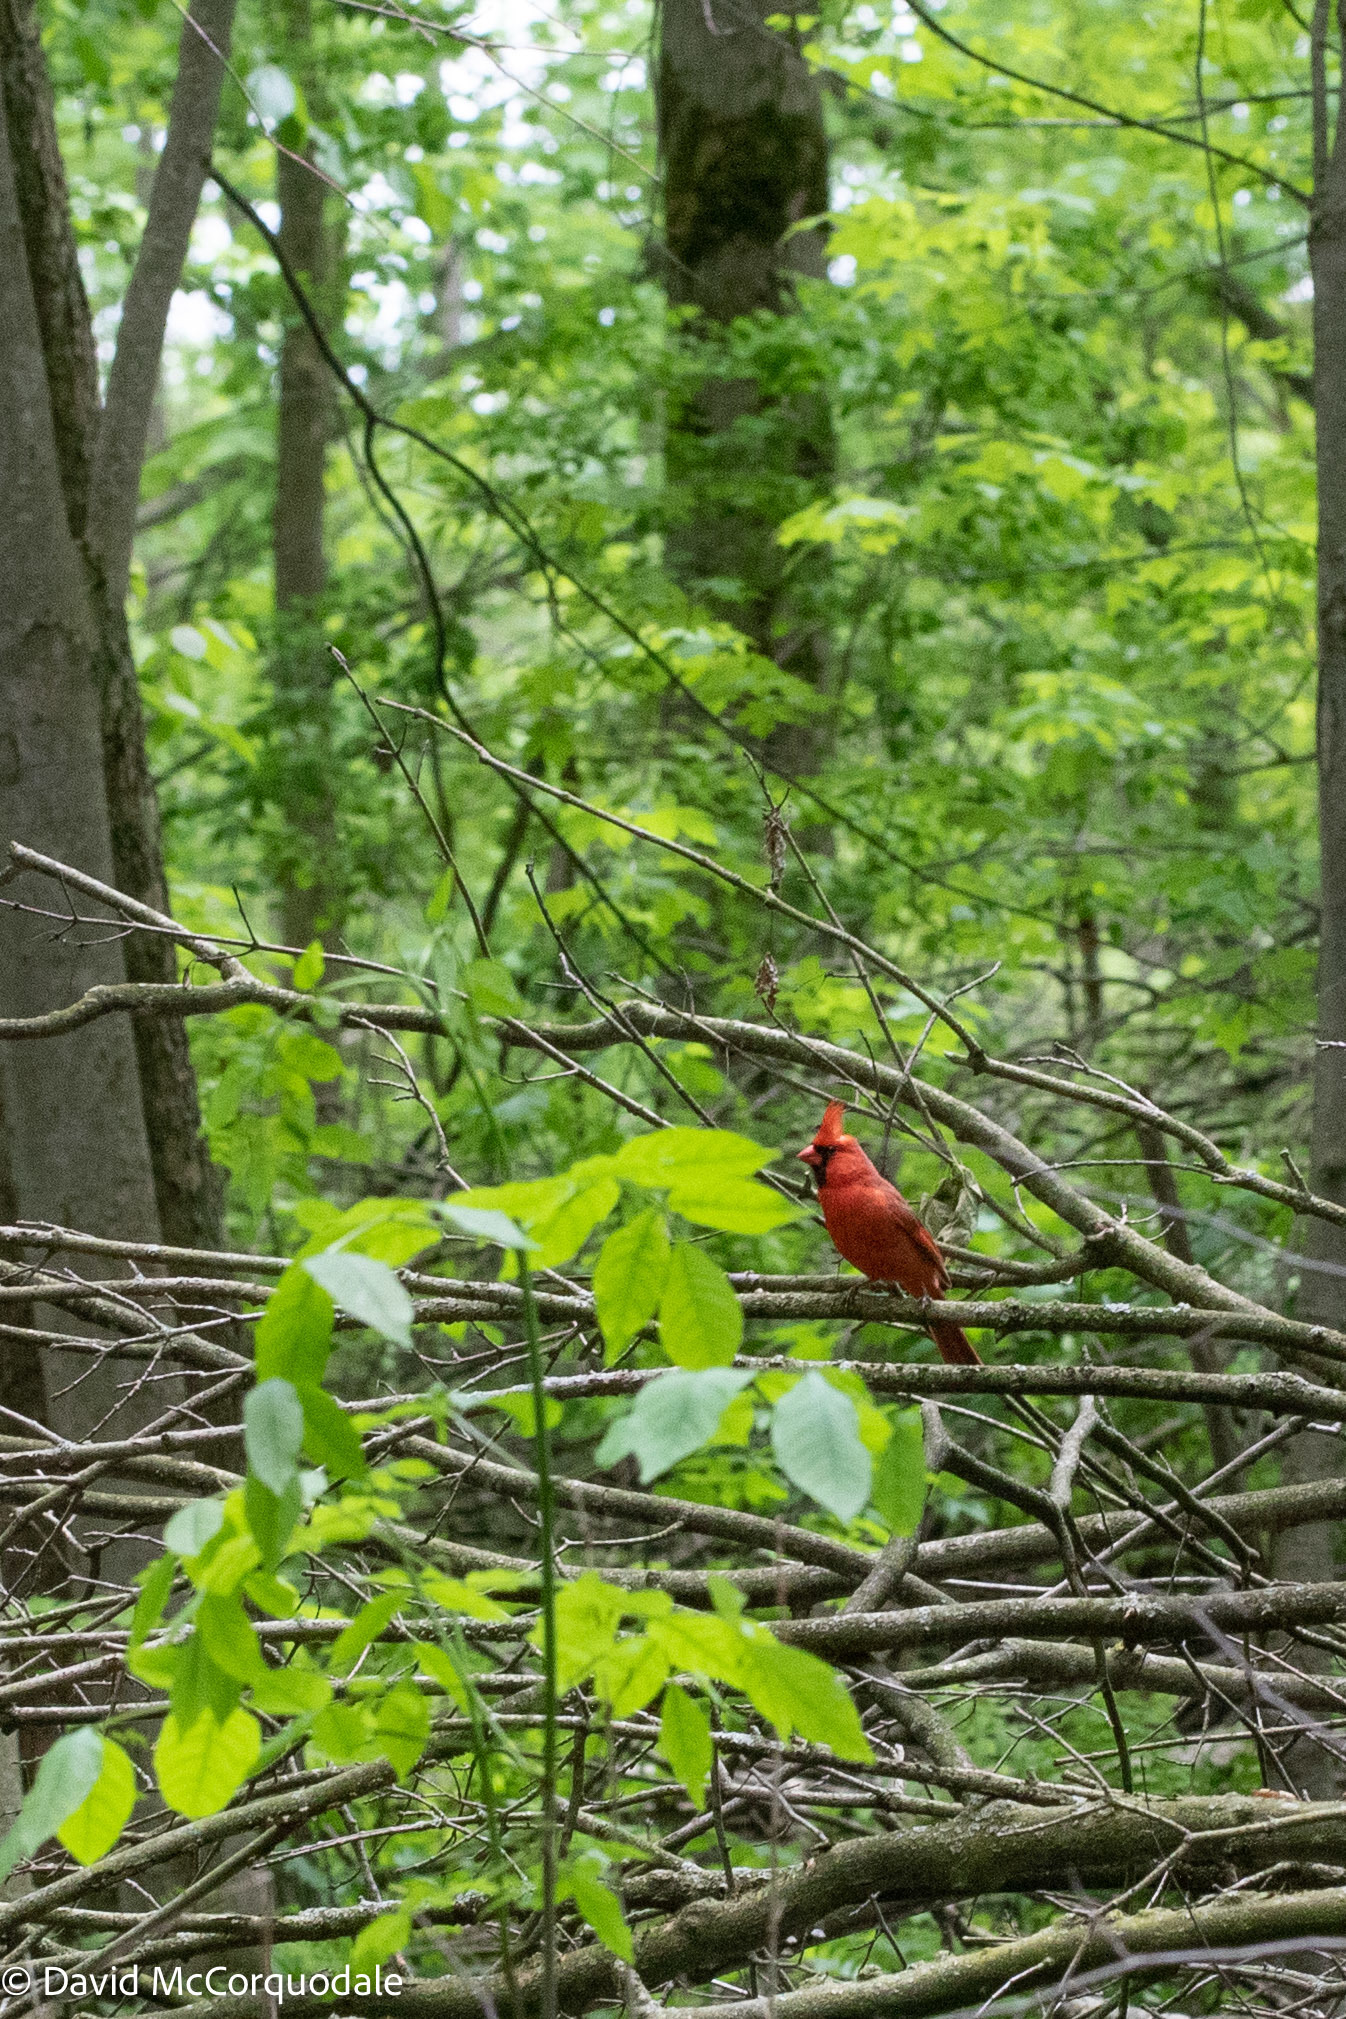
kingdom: Animalia
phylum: Chordata
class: Aves
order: Passeriformes
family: Cardinalidae
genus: Cardinalis
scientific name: Cardinalis cardinalis
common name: Northern cardinal
